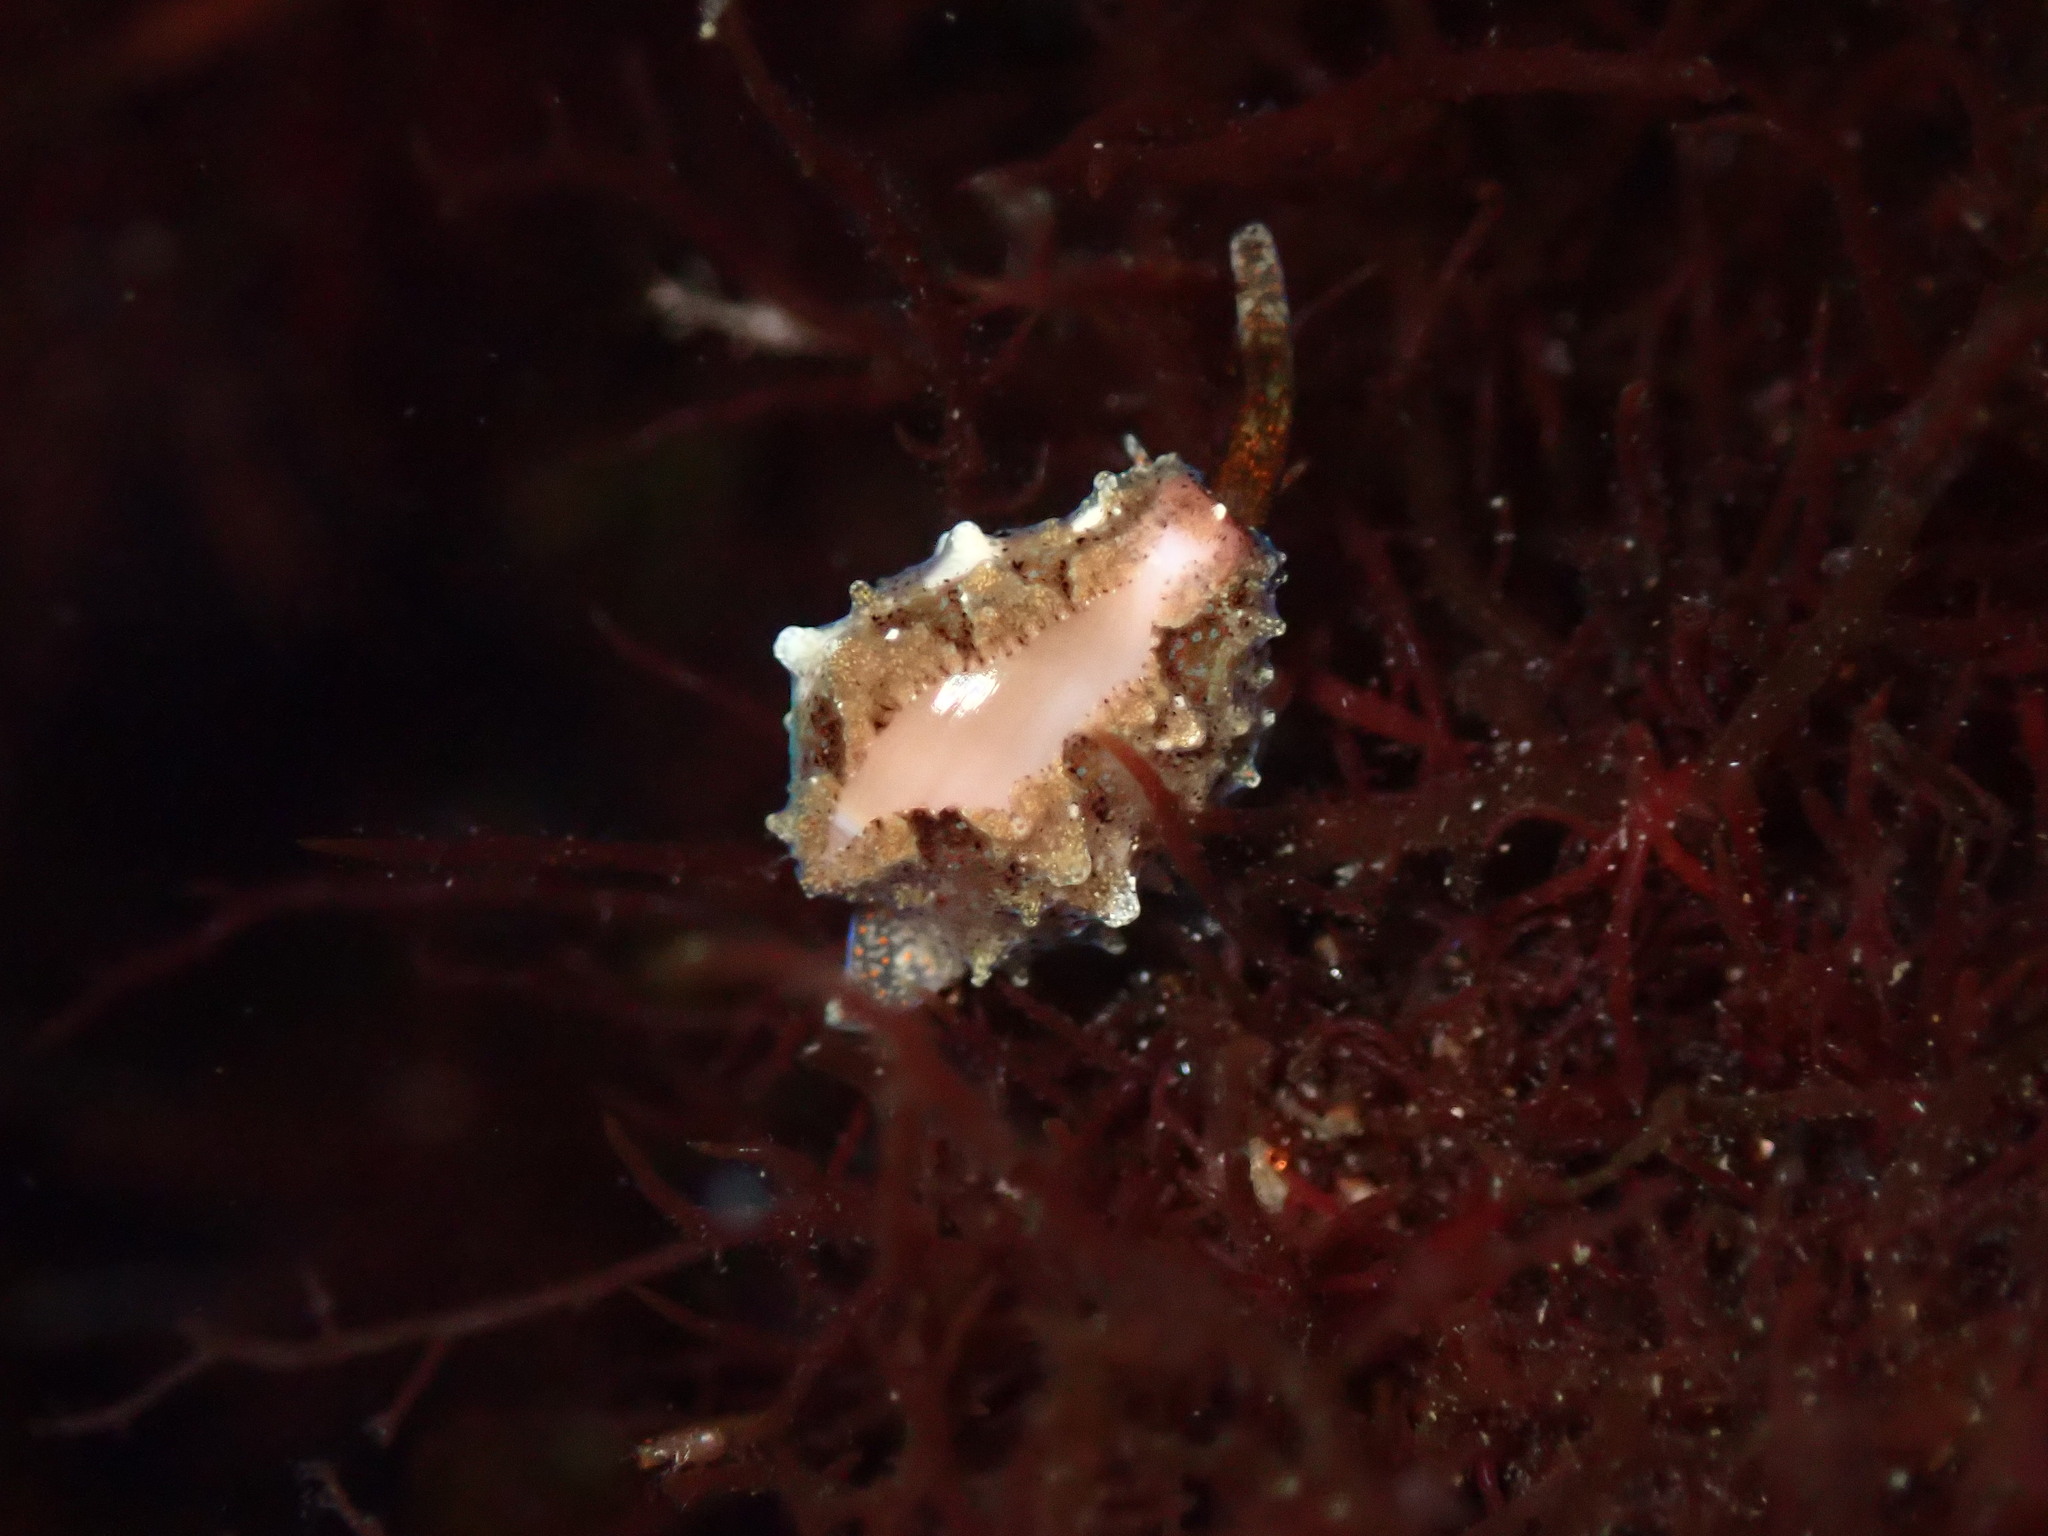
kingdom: Animalia
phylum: Mollusca
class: Gastropoda
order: Littorinimorpha
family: Eratoidae
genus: Hespererato
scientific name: Hespererato vitellina
